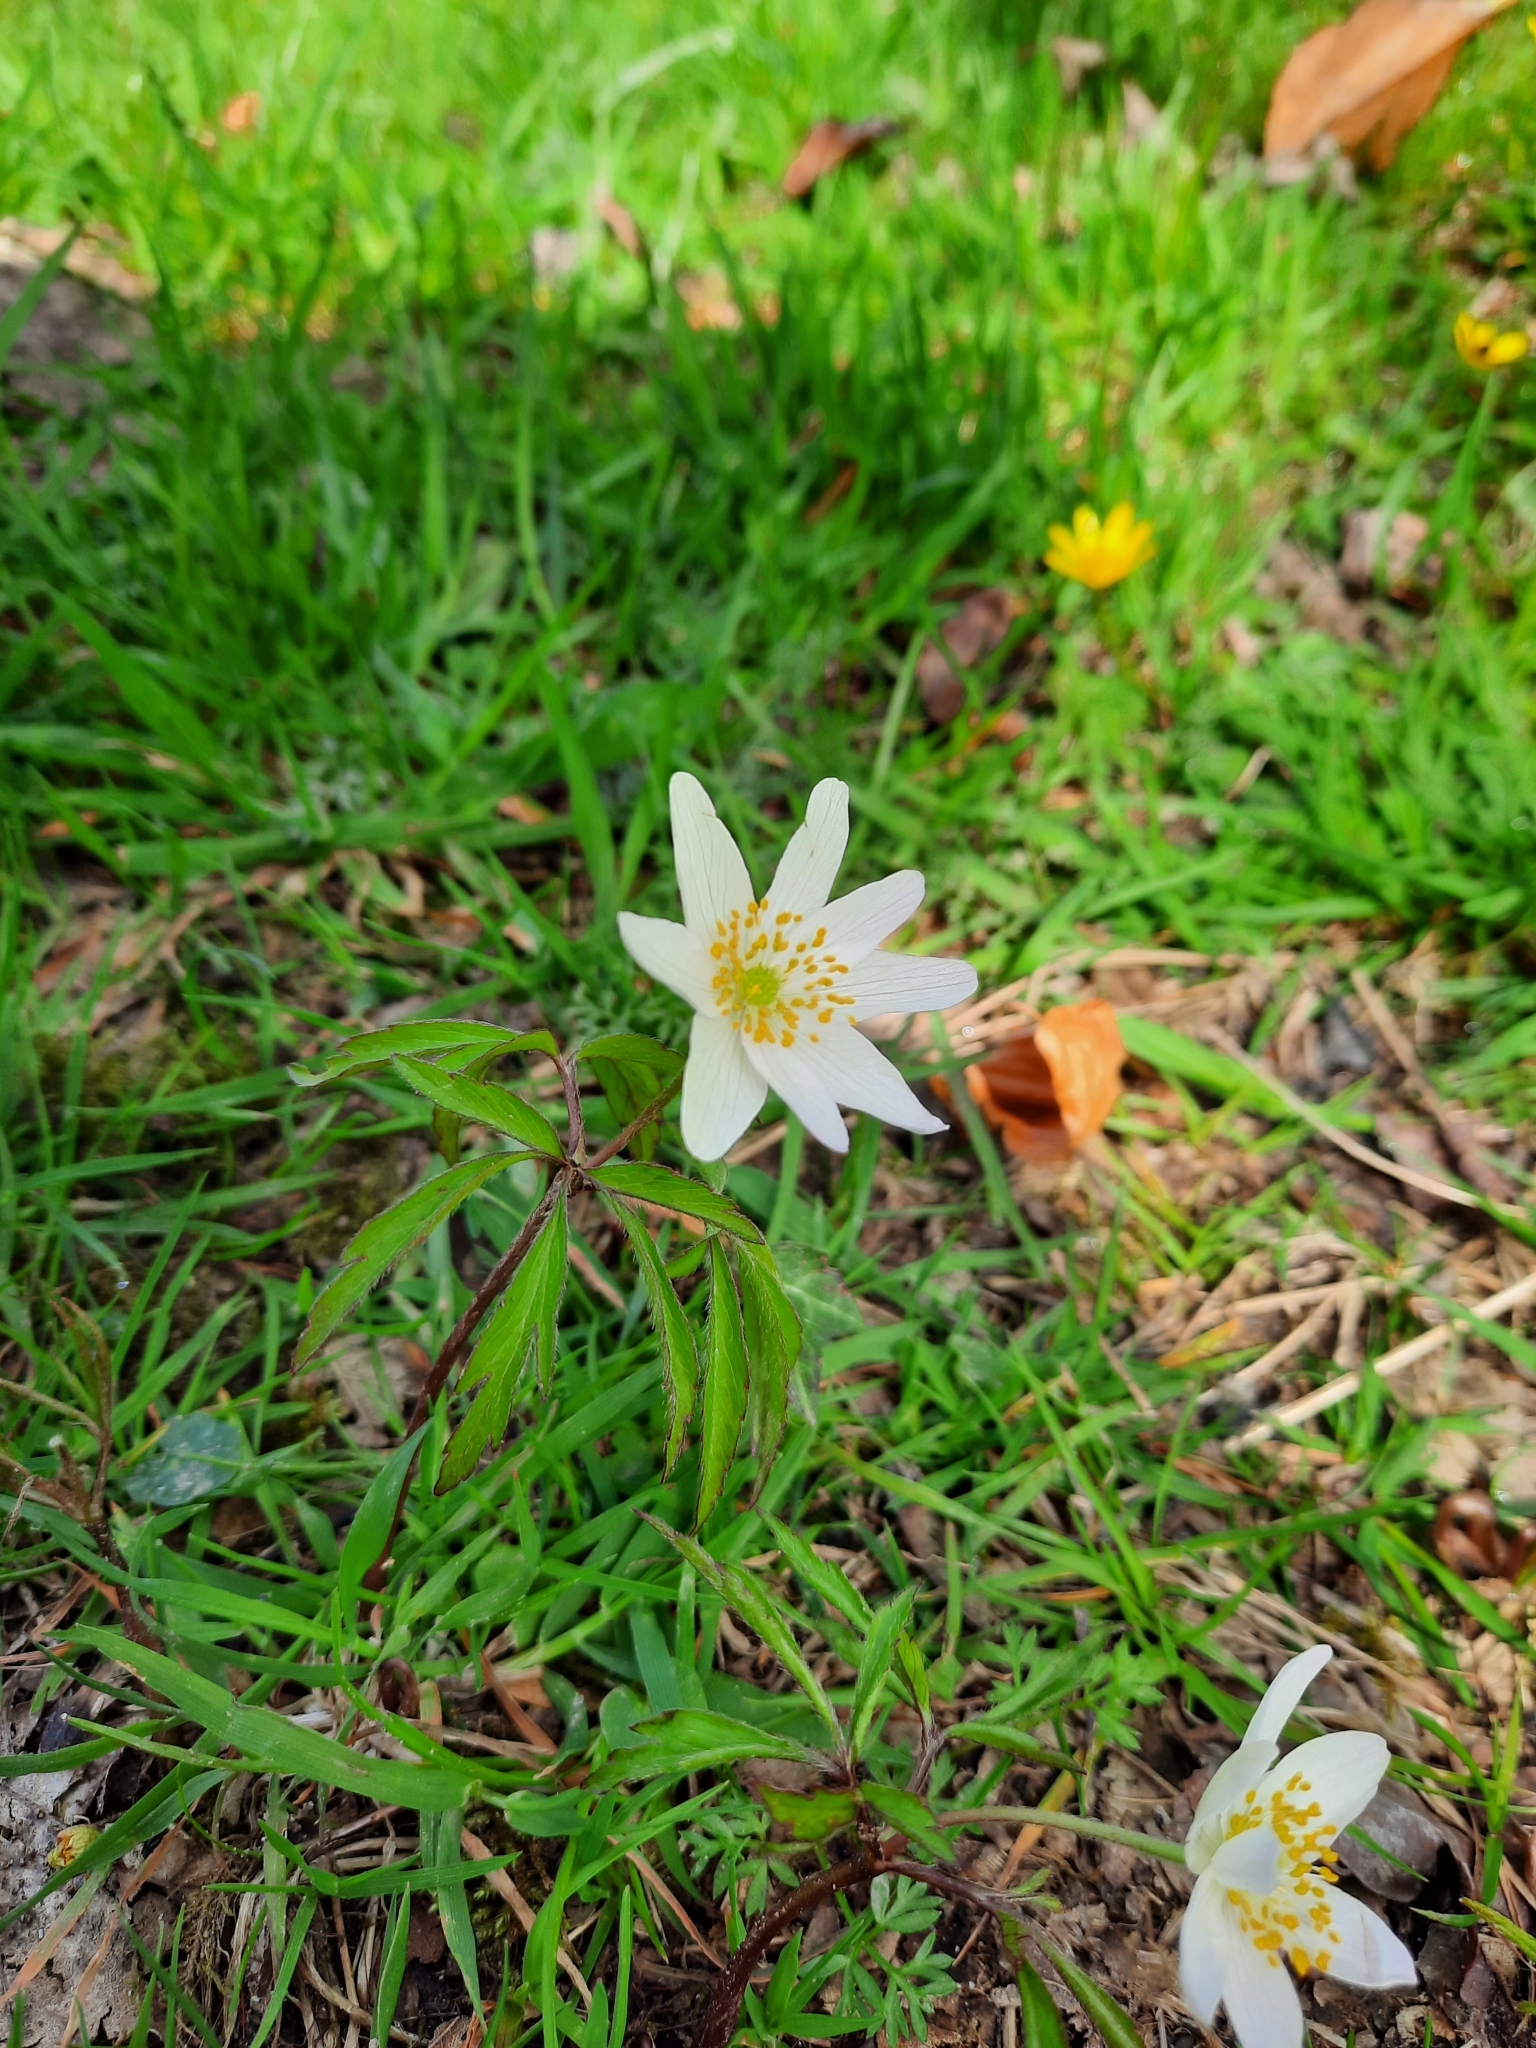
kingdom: Plantae
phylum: Tracheophyta
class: Magnoliopsida
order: Ranunculales
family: Ranunculaceae
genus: Anemone
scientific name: Anemone nemorosa
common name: Wood anemone
